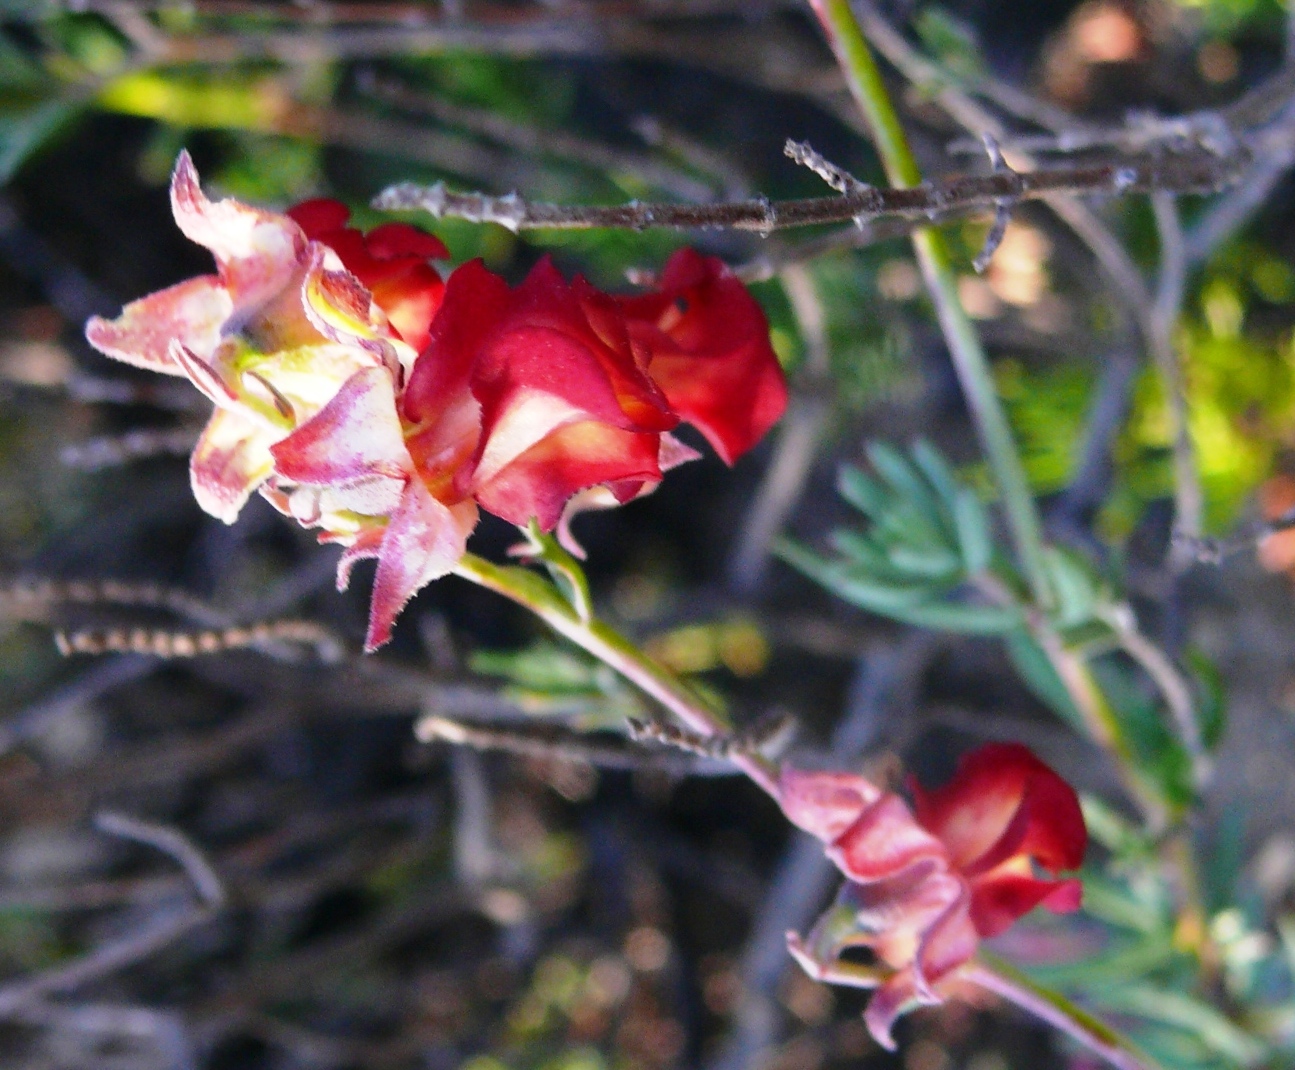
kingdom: Plantae
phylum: Tracheophyta
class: Magnoliopsida
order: Malvales
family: Malvaceae
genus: Hermannia
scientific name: Hermannia filifolia
